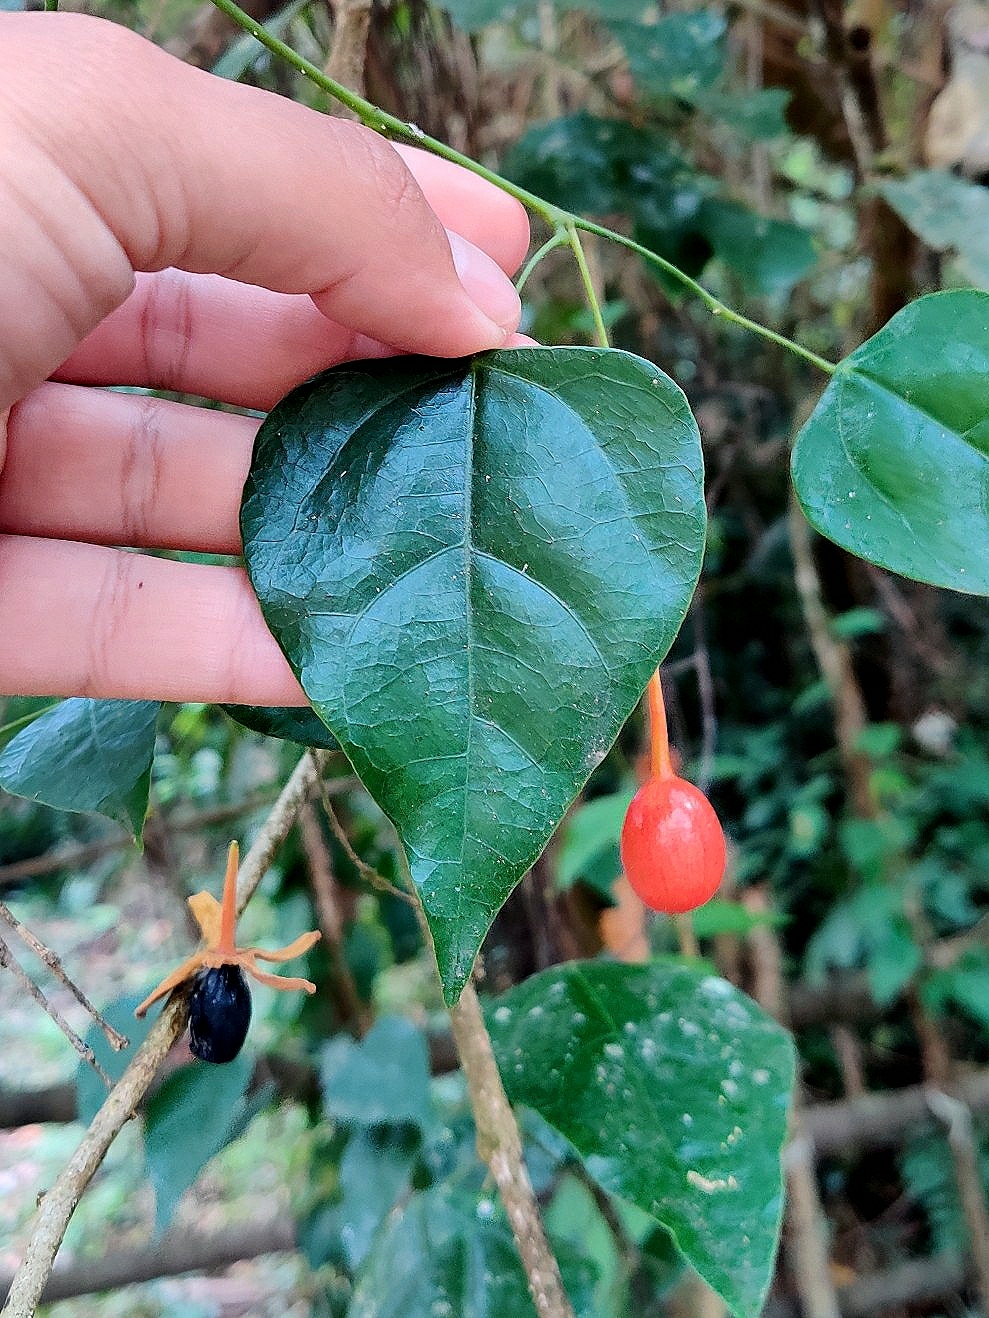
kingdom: Plantae
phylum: Tracheophyta
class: Magnoliopsida
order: Santalales
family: Erythropalaceae
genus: Erythropalum
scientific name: Erythropalum scandens
